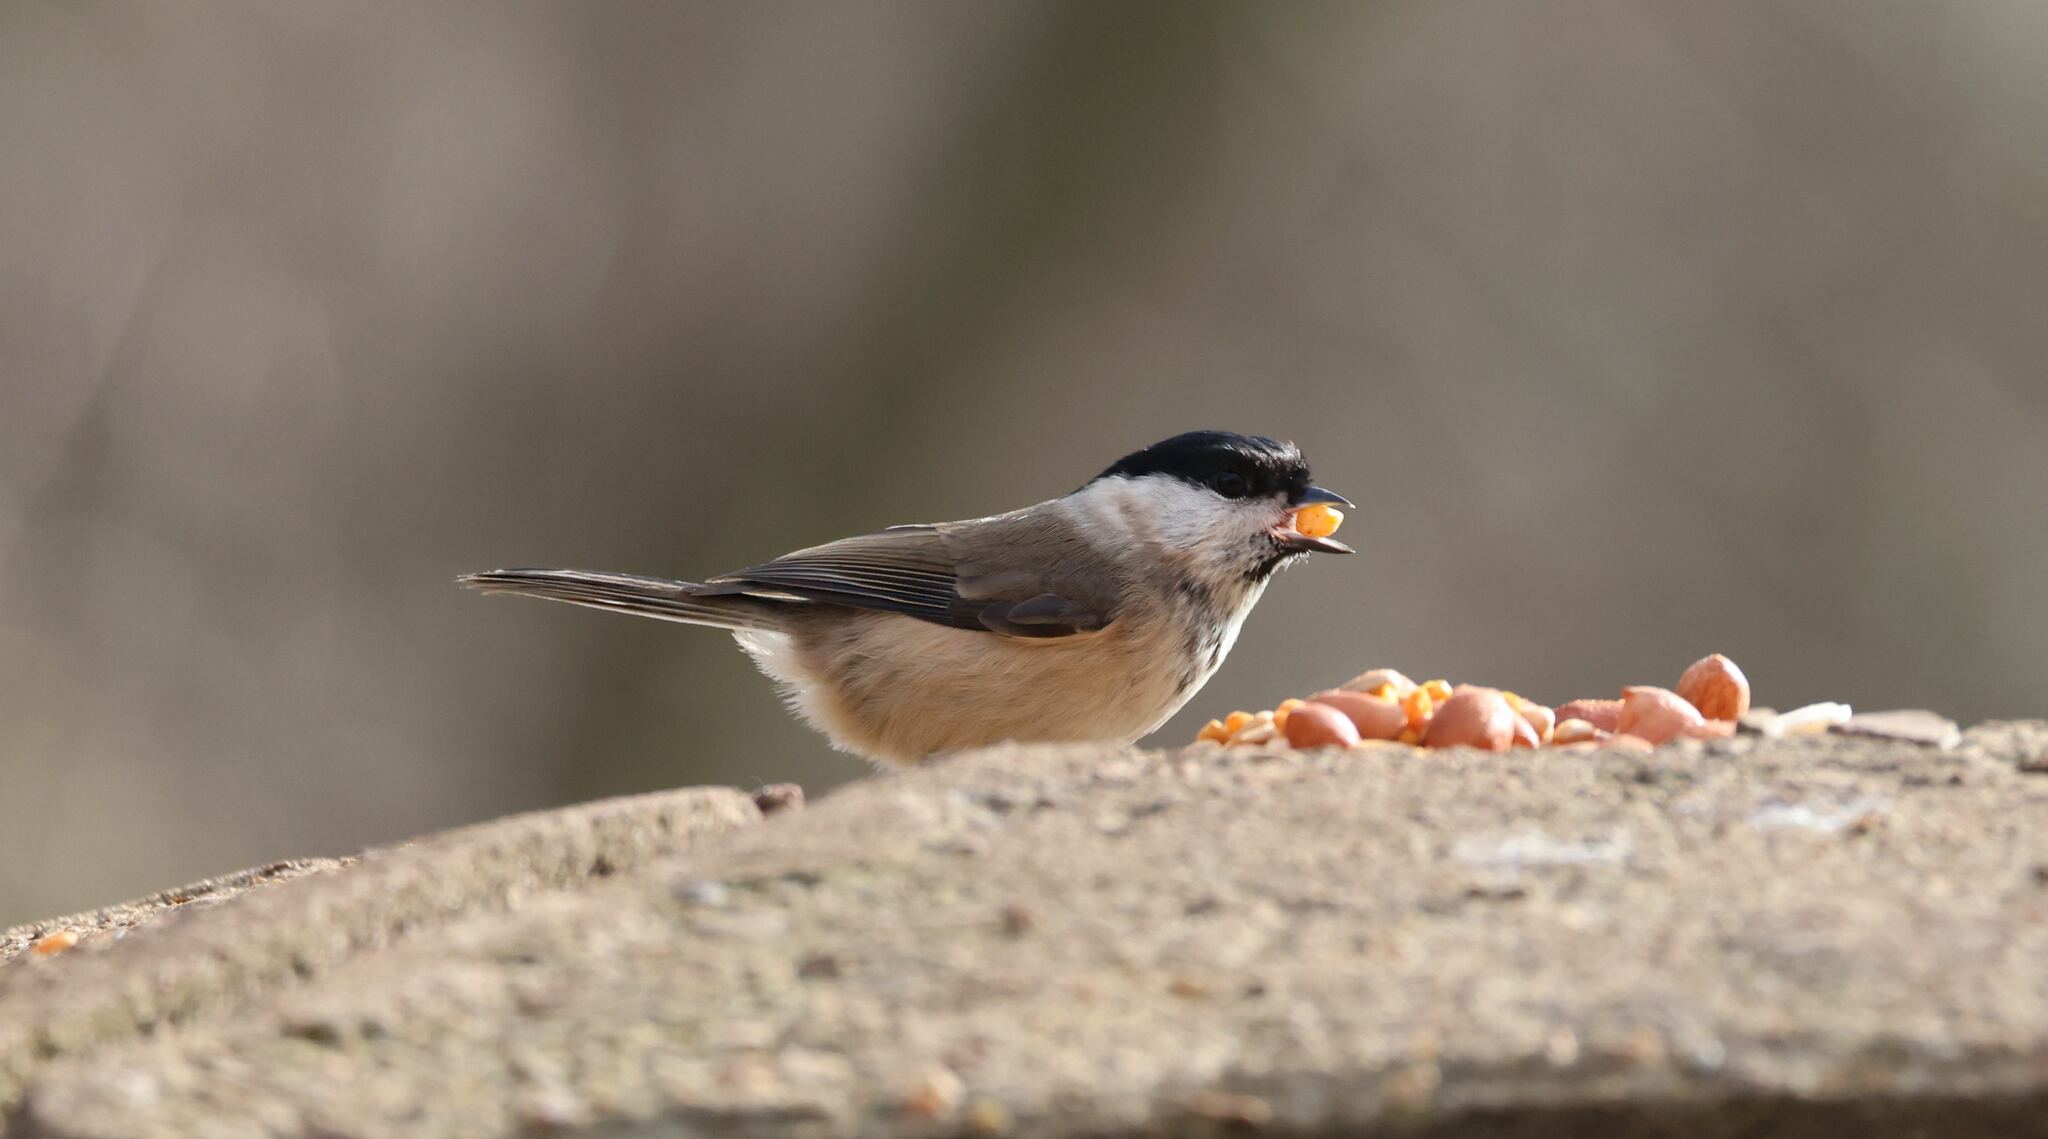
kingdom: Animalia
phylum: Chordata
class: Aves
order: Passeriformes
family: Paridae
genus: Poecile
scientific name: Poecile palustris
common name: Marsh tit
